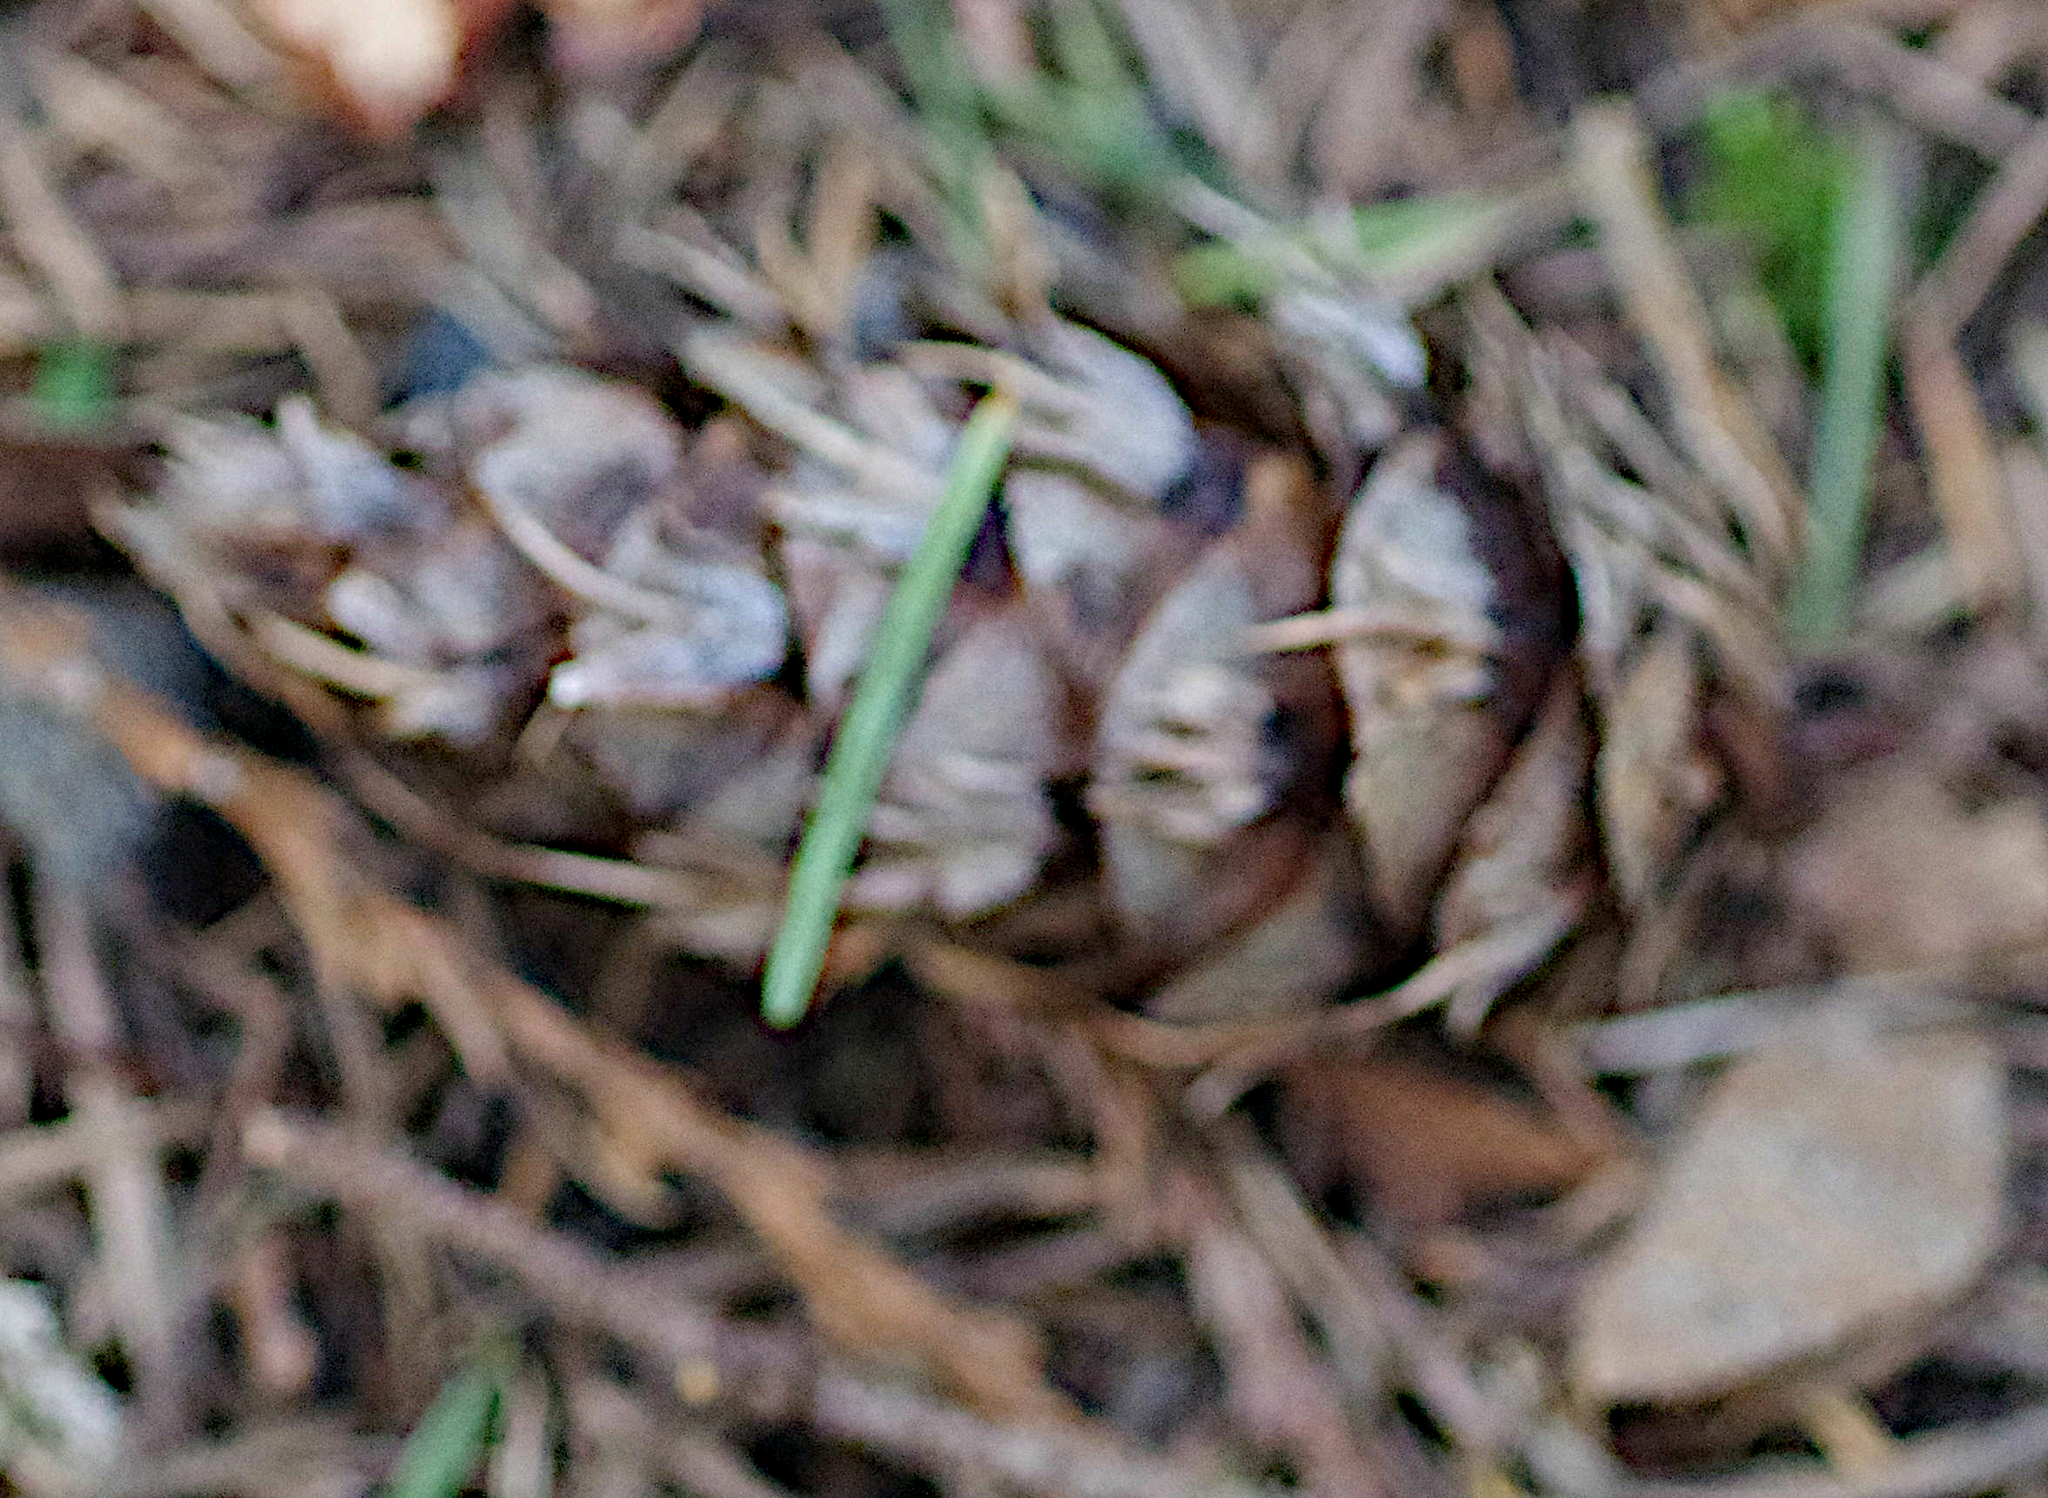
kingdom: Plantae
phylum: Tracheophyta
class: Pinopsida
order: Pinales
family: Pinaceae
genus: Pseudotsuga
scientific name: Pseudotsuga menziesii
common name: Douglas fir
